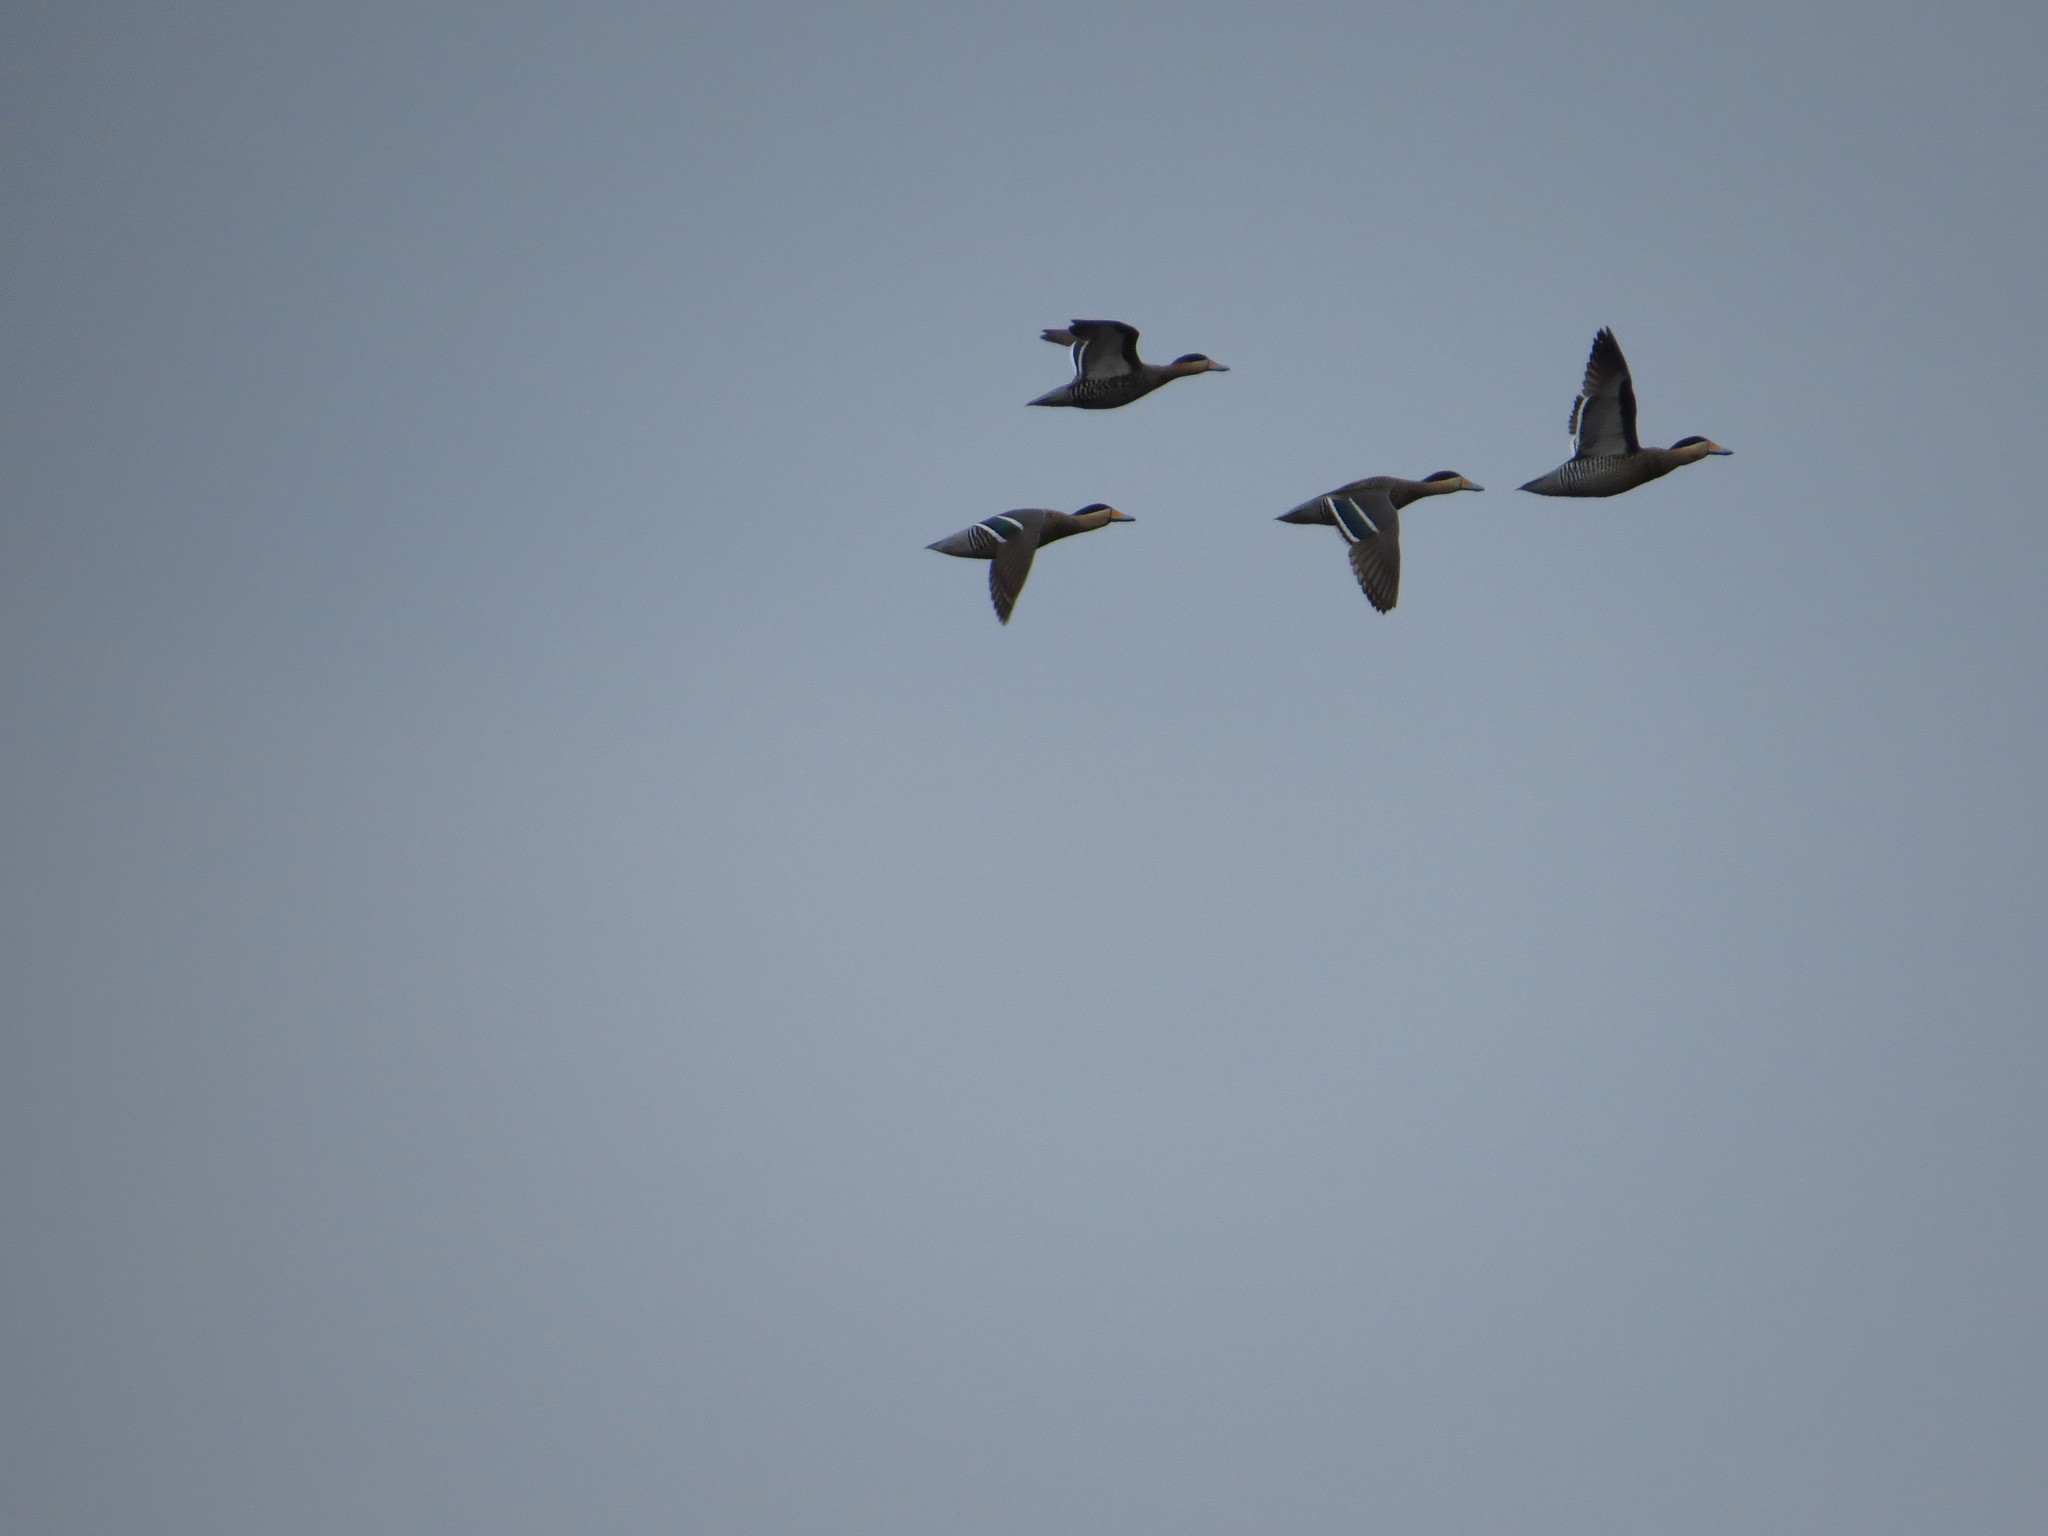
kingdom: Animalia
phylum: Chordata
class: Aves
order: Anseriformes
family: Anatidae
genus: Spatula
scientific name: Spatula versicolor
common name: Silver teal
